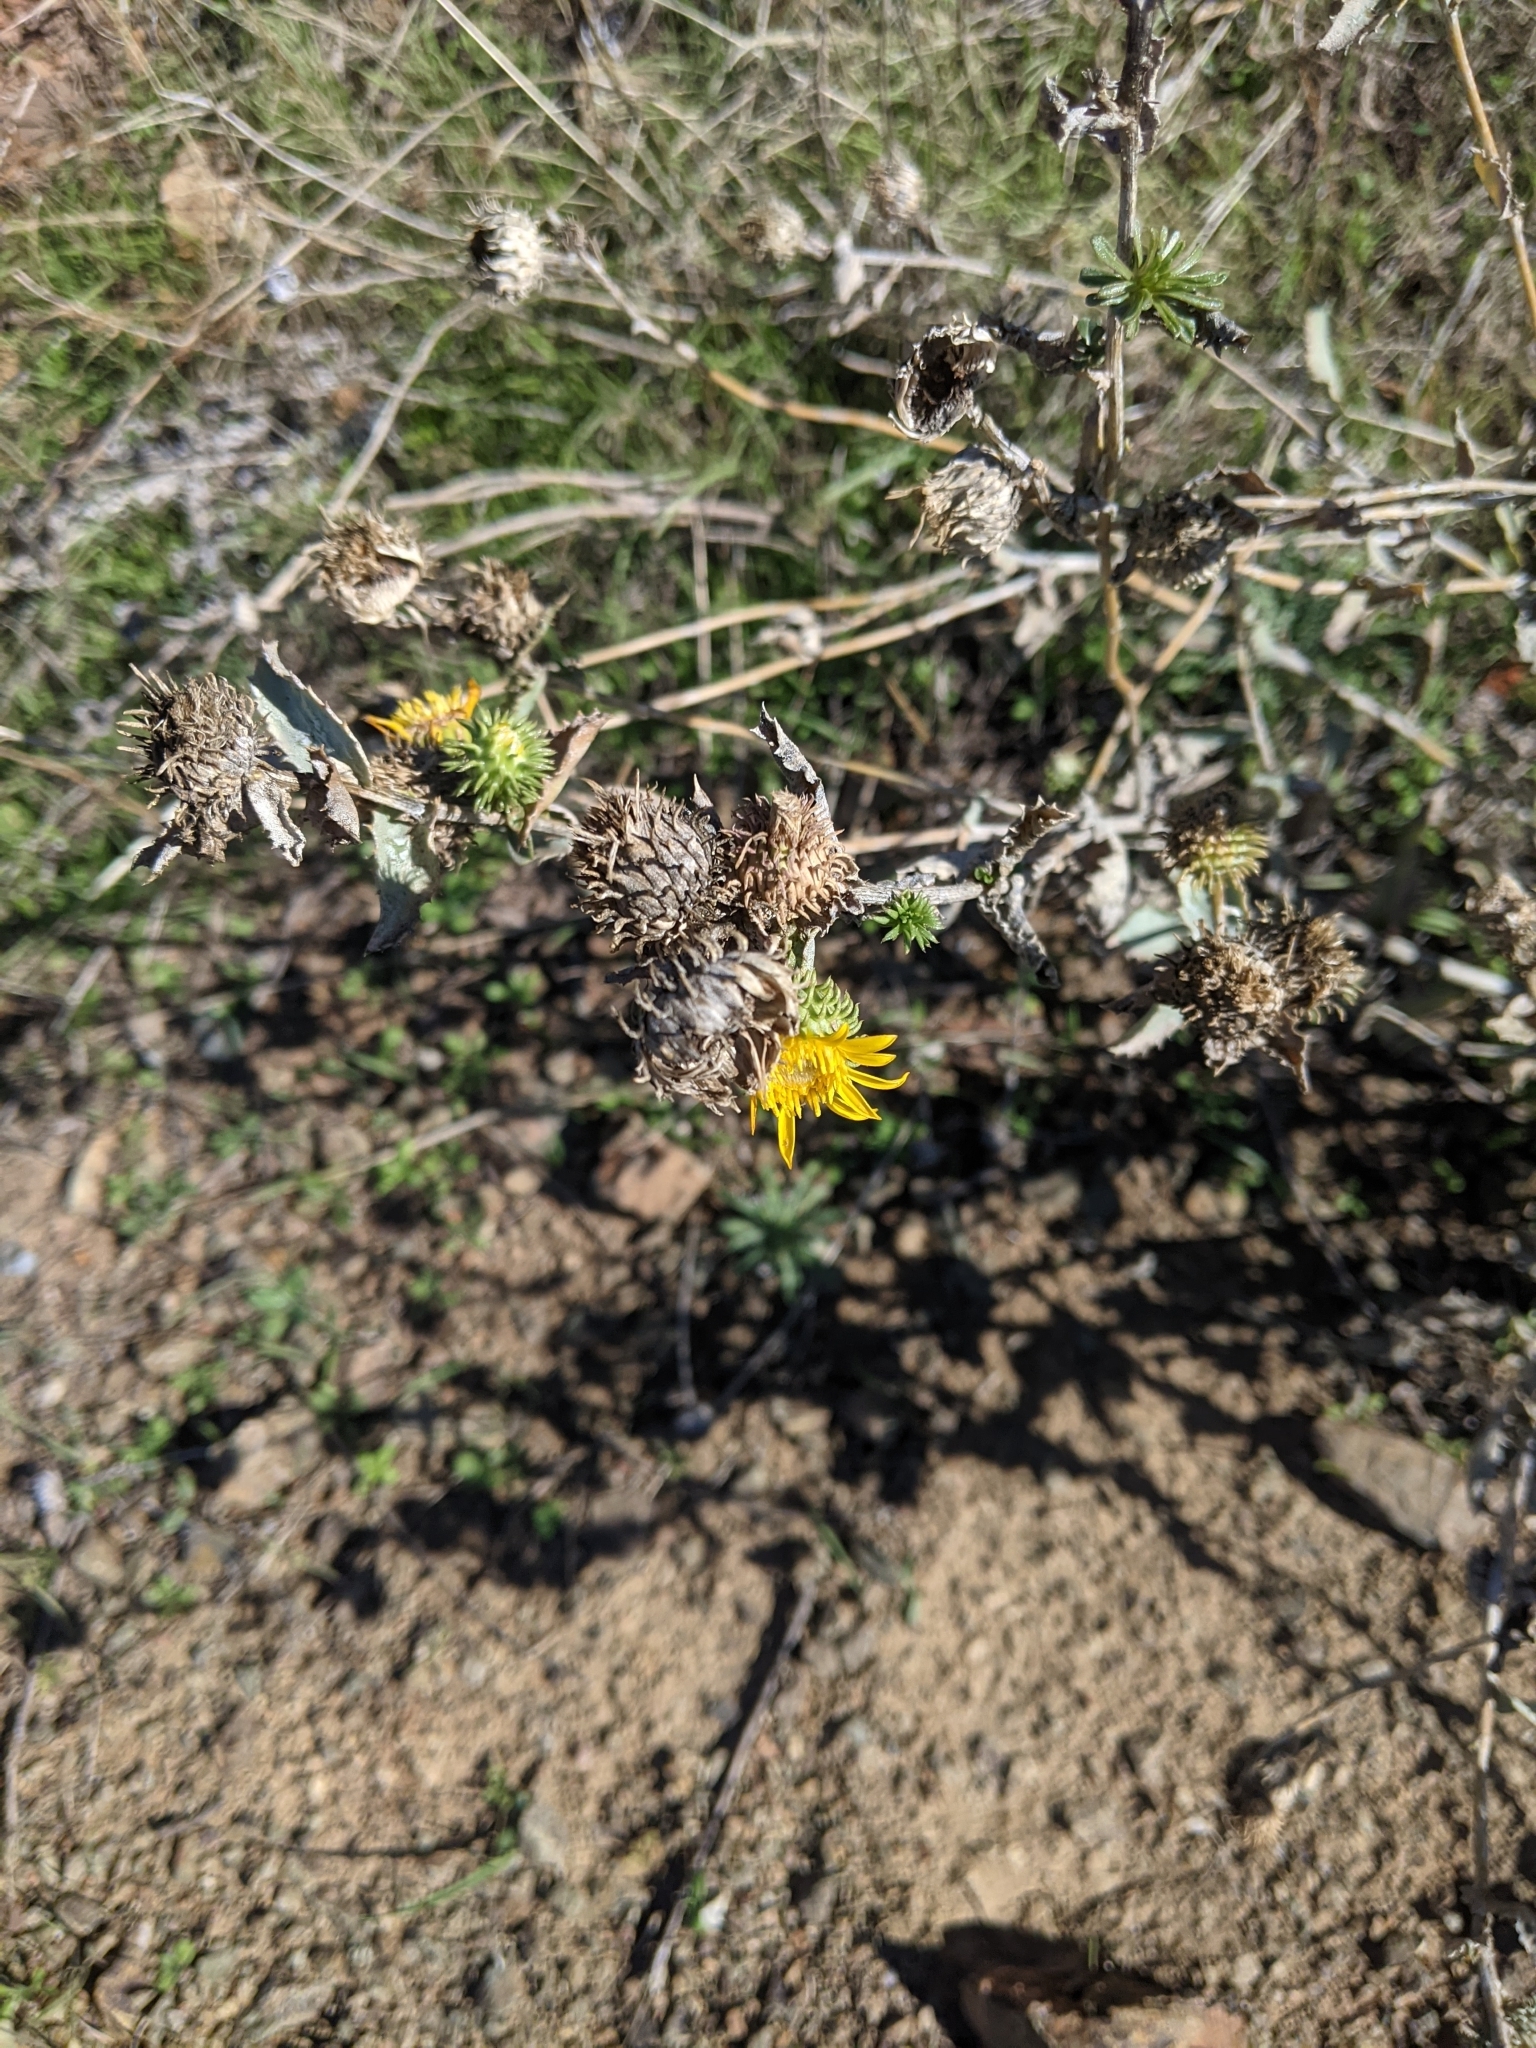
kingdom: Plantae
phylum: Tracheophyta
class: Magnoliopsida
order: Asterales
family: Asteraceae
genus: Grindelia
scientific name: Grindelia hirsutula
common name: Hairy gumweed
